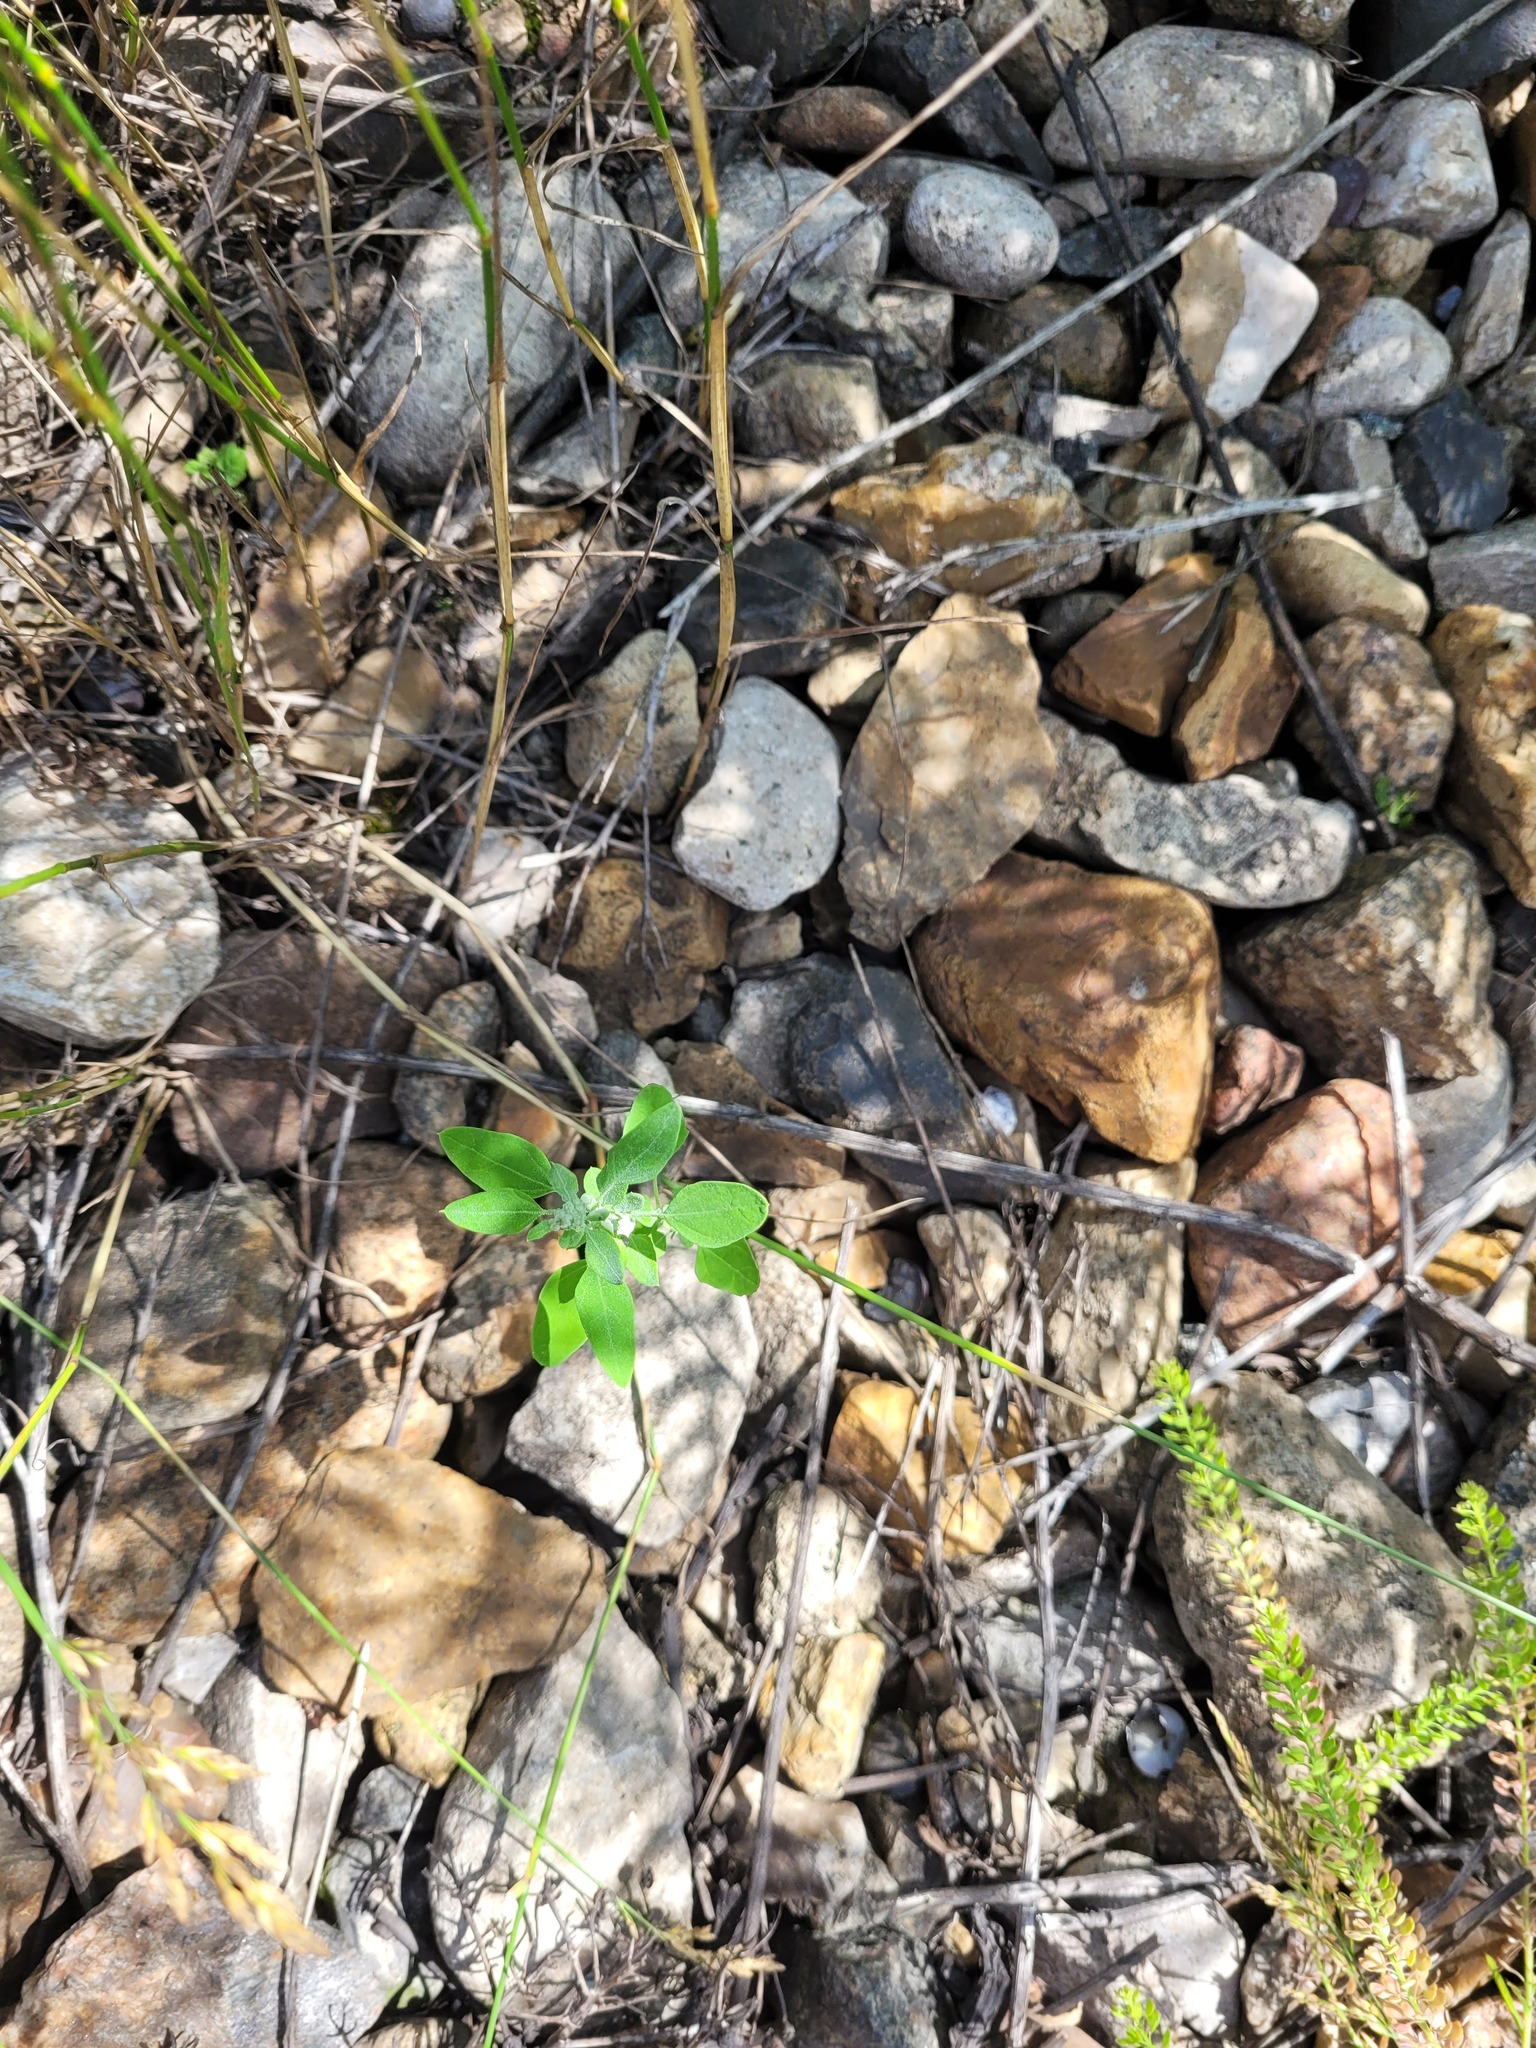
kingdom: Plantae
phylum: Tracheophyta
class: Magnoliopsida
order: Caryophyllales
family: Amaranthaceae
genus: Chenopodium
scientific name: Chenopodium album
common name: Fat-hen
